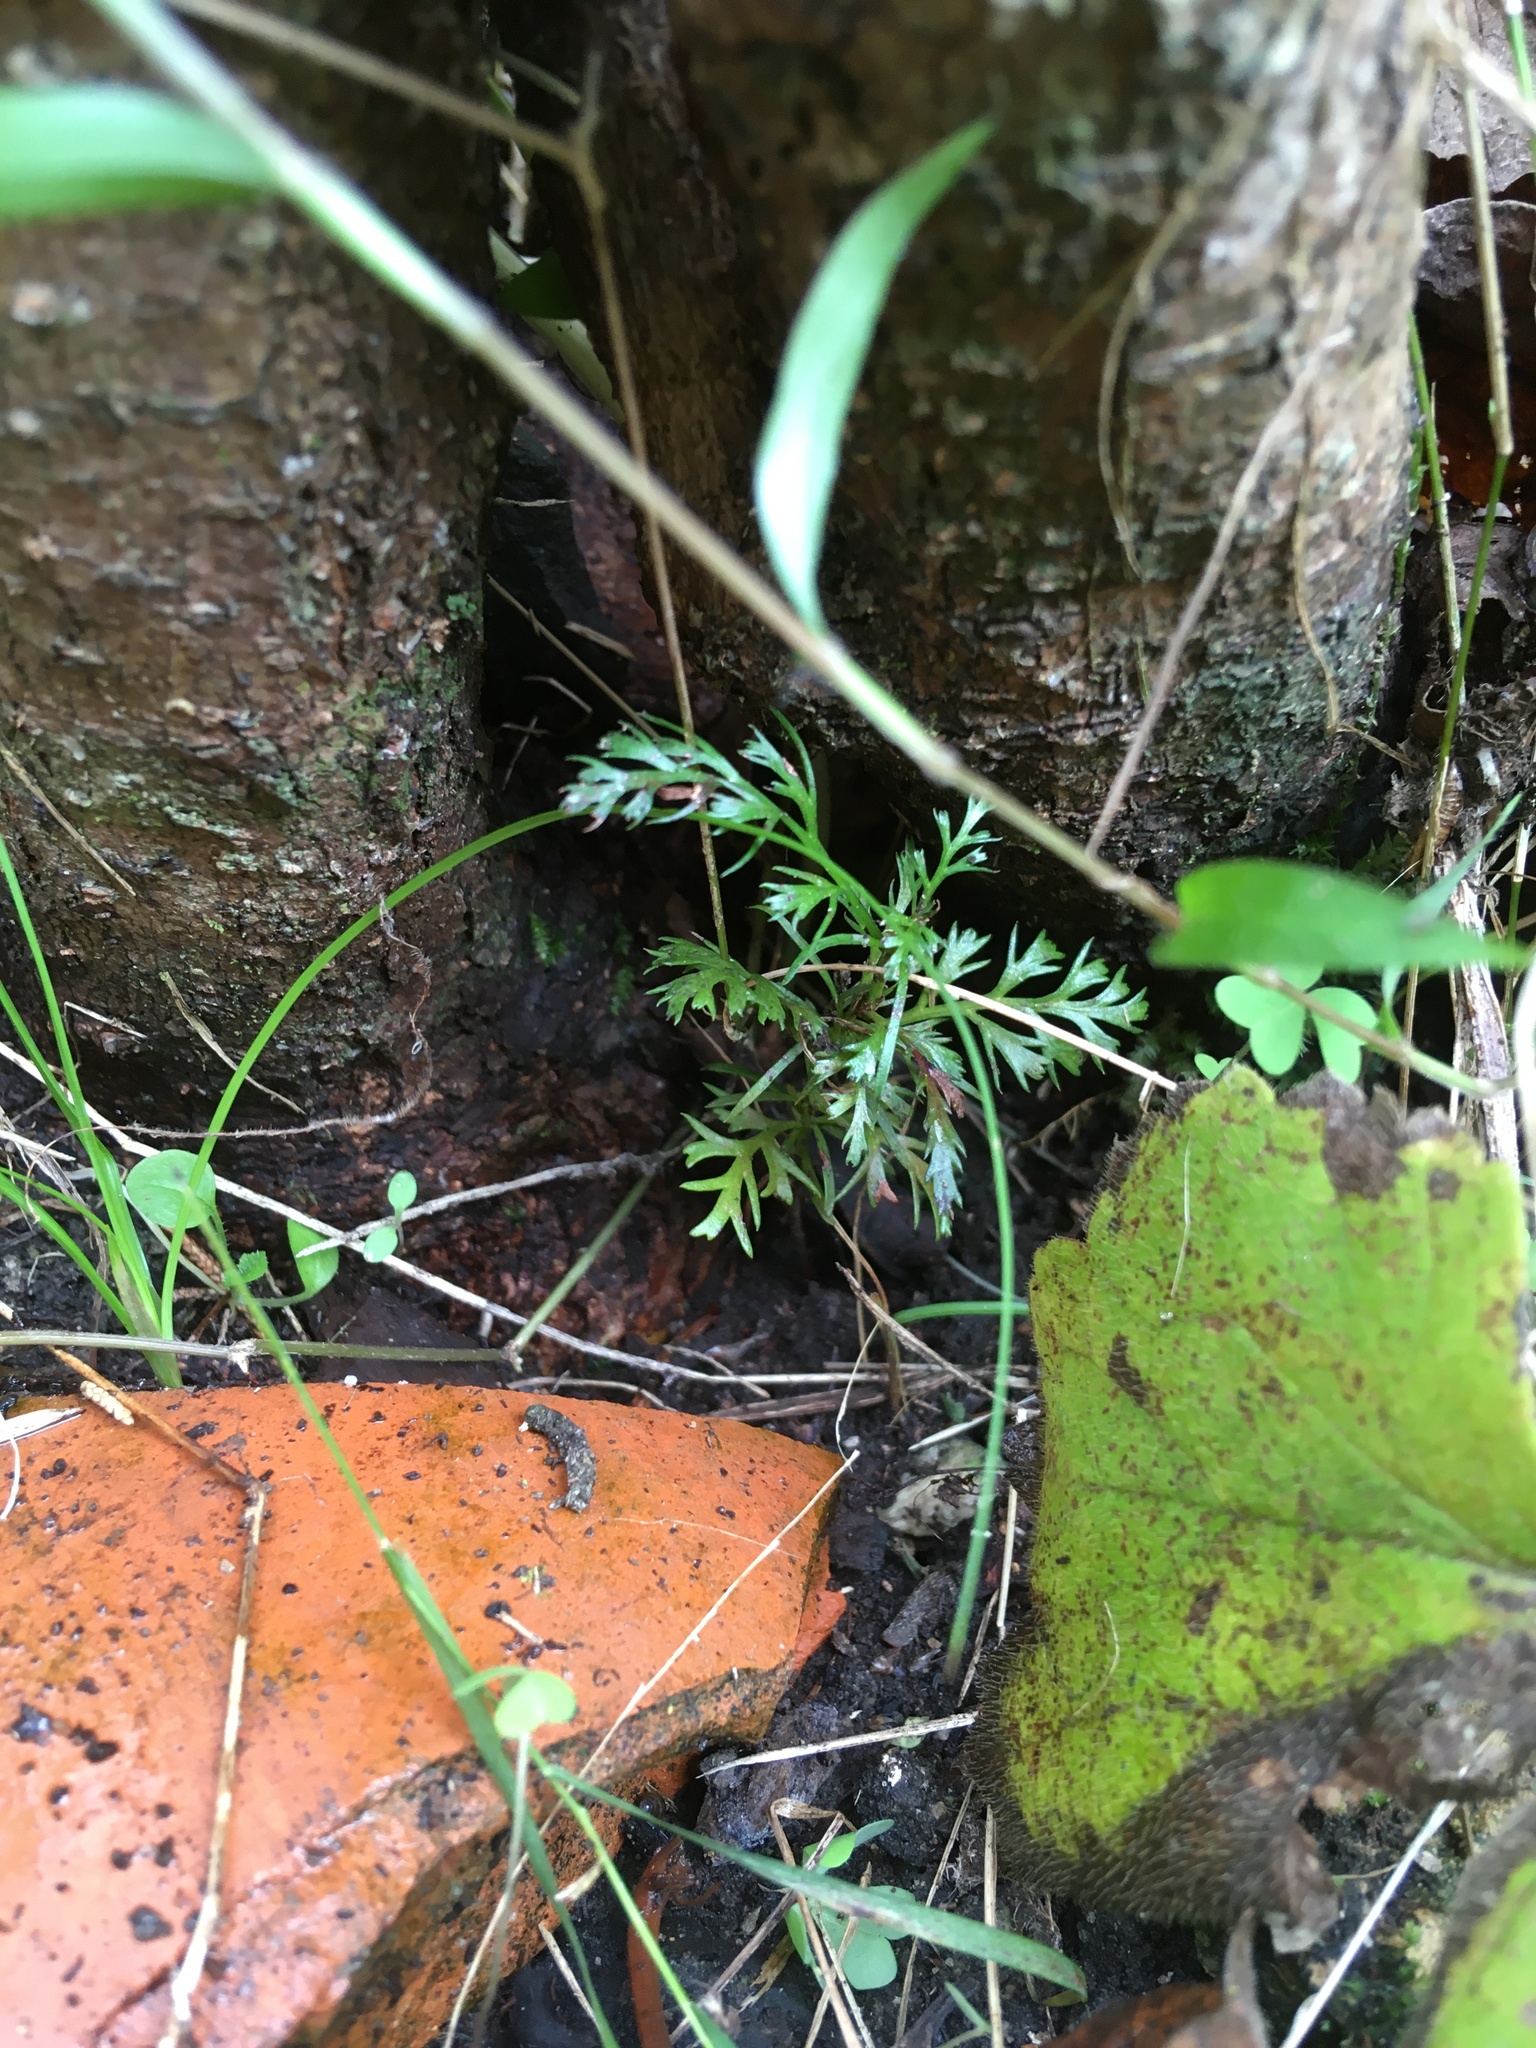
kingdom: Plantae
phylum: Tracheophyta
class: Pinopsida
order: Pinales
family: Phyllocladaceae
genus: Phyllocladus
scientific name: Phyllocladus trichomanoides
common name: Celery pine
